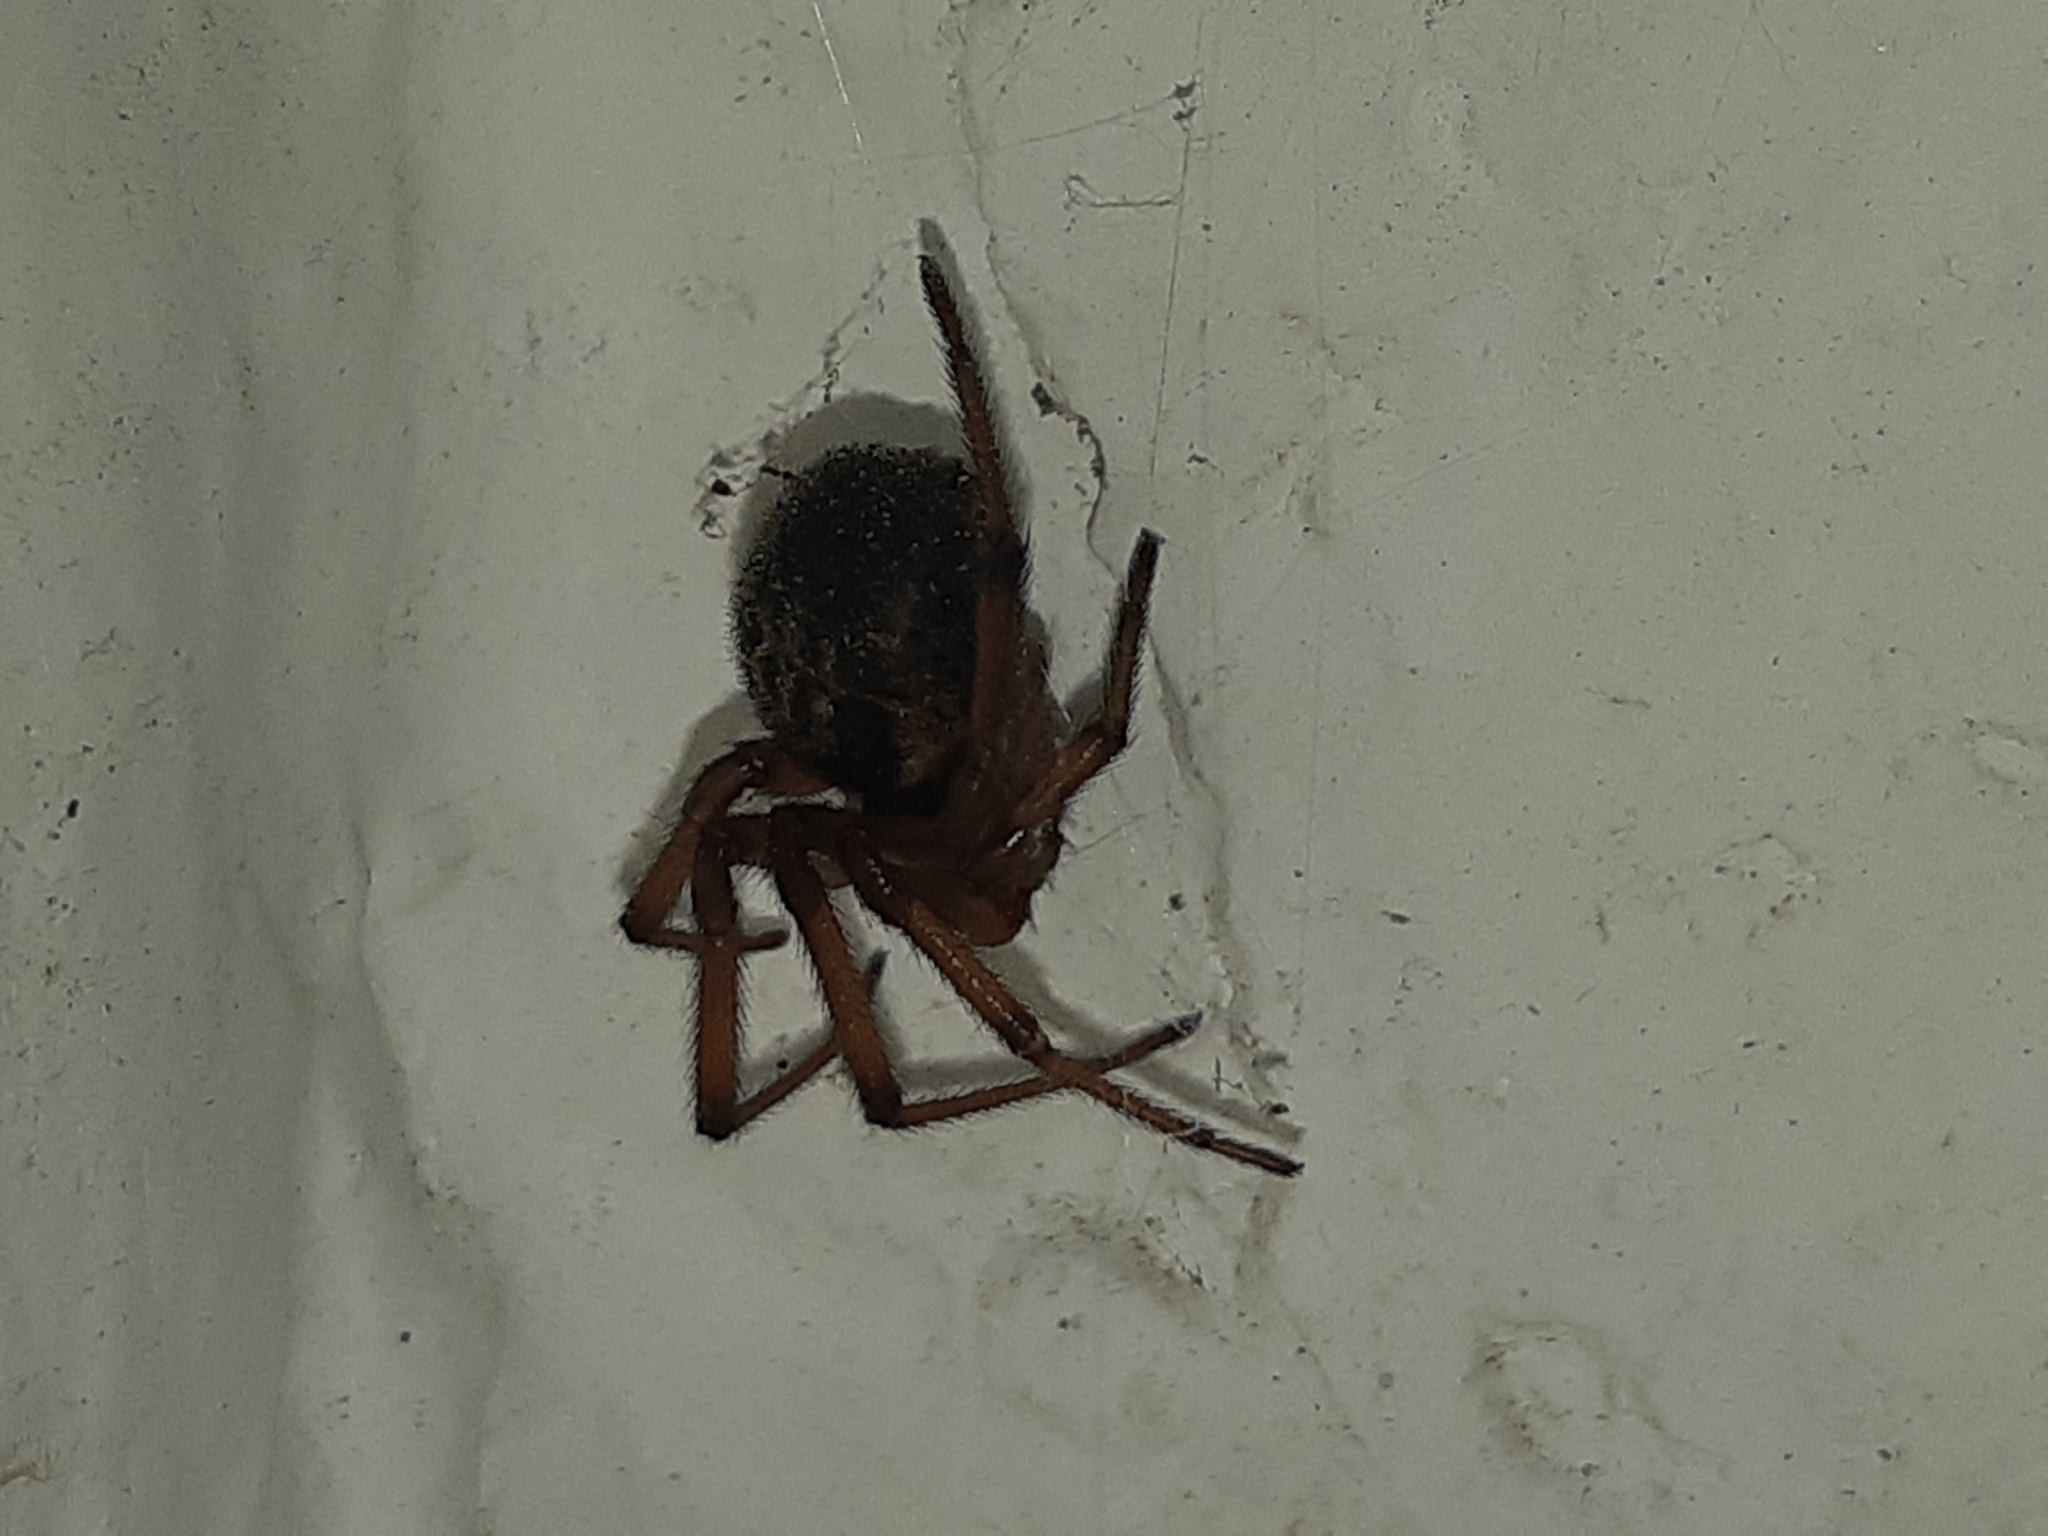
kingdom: Animalia
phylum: Arthropoda
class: Arachnida
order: Araneae
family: Theridiidae
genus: Steatoda
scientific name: Steatoda nobilis
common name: Cobweb weaver
